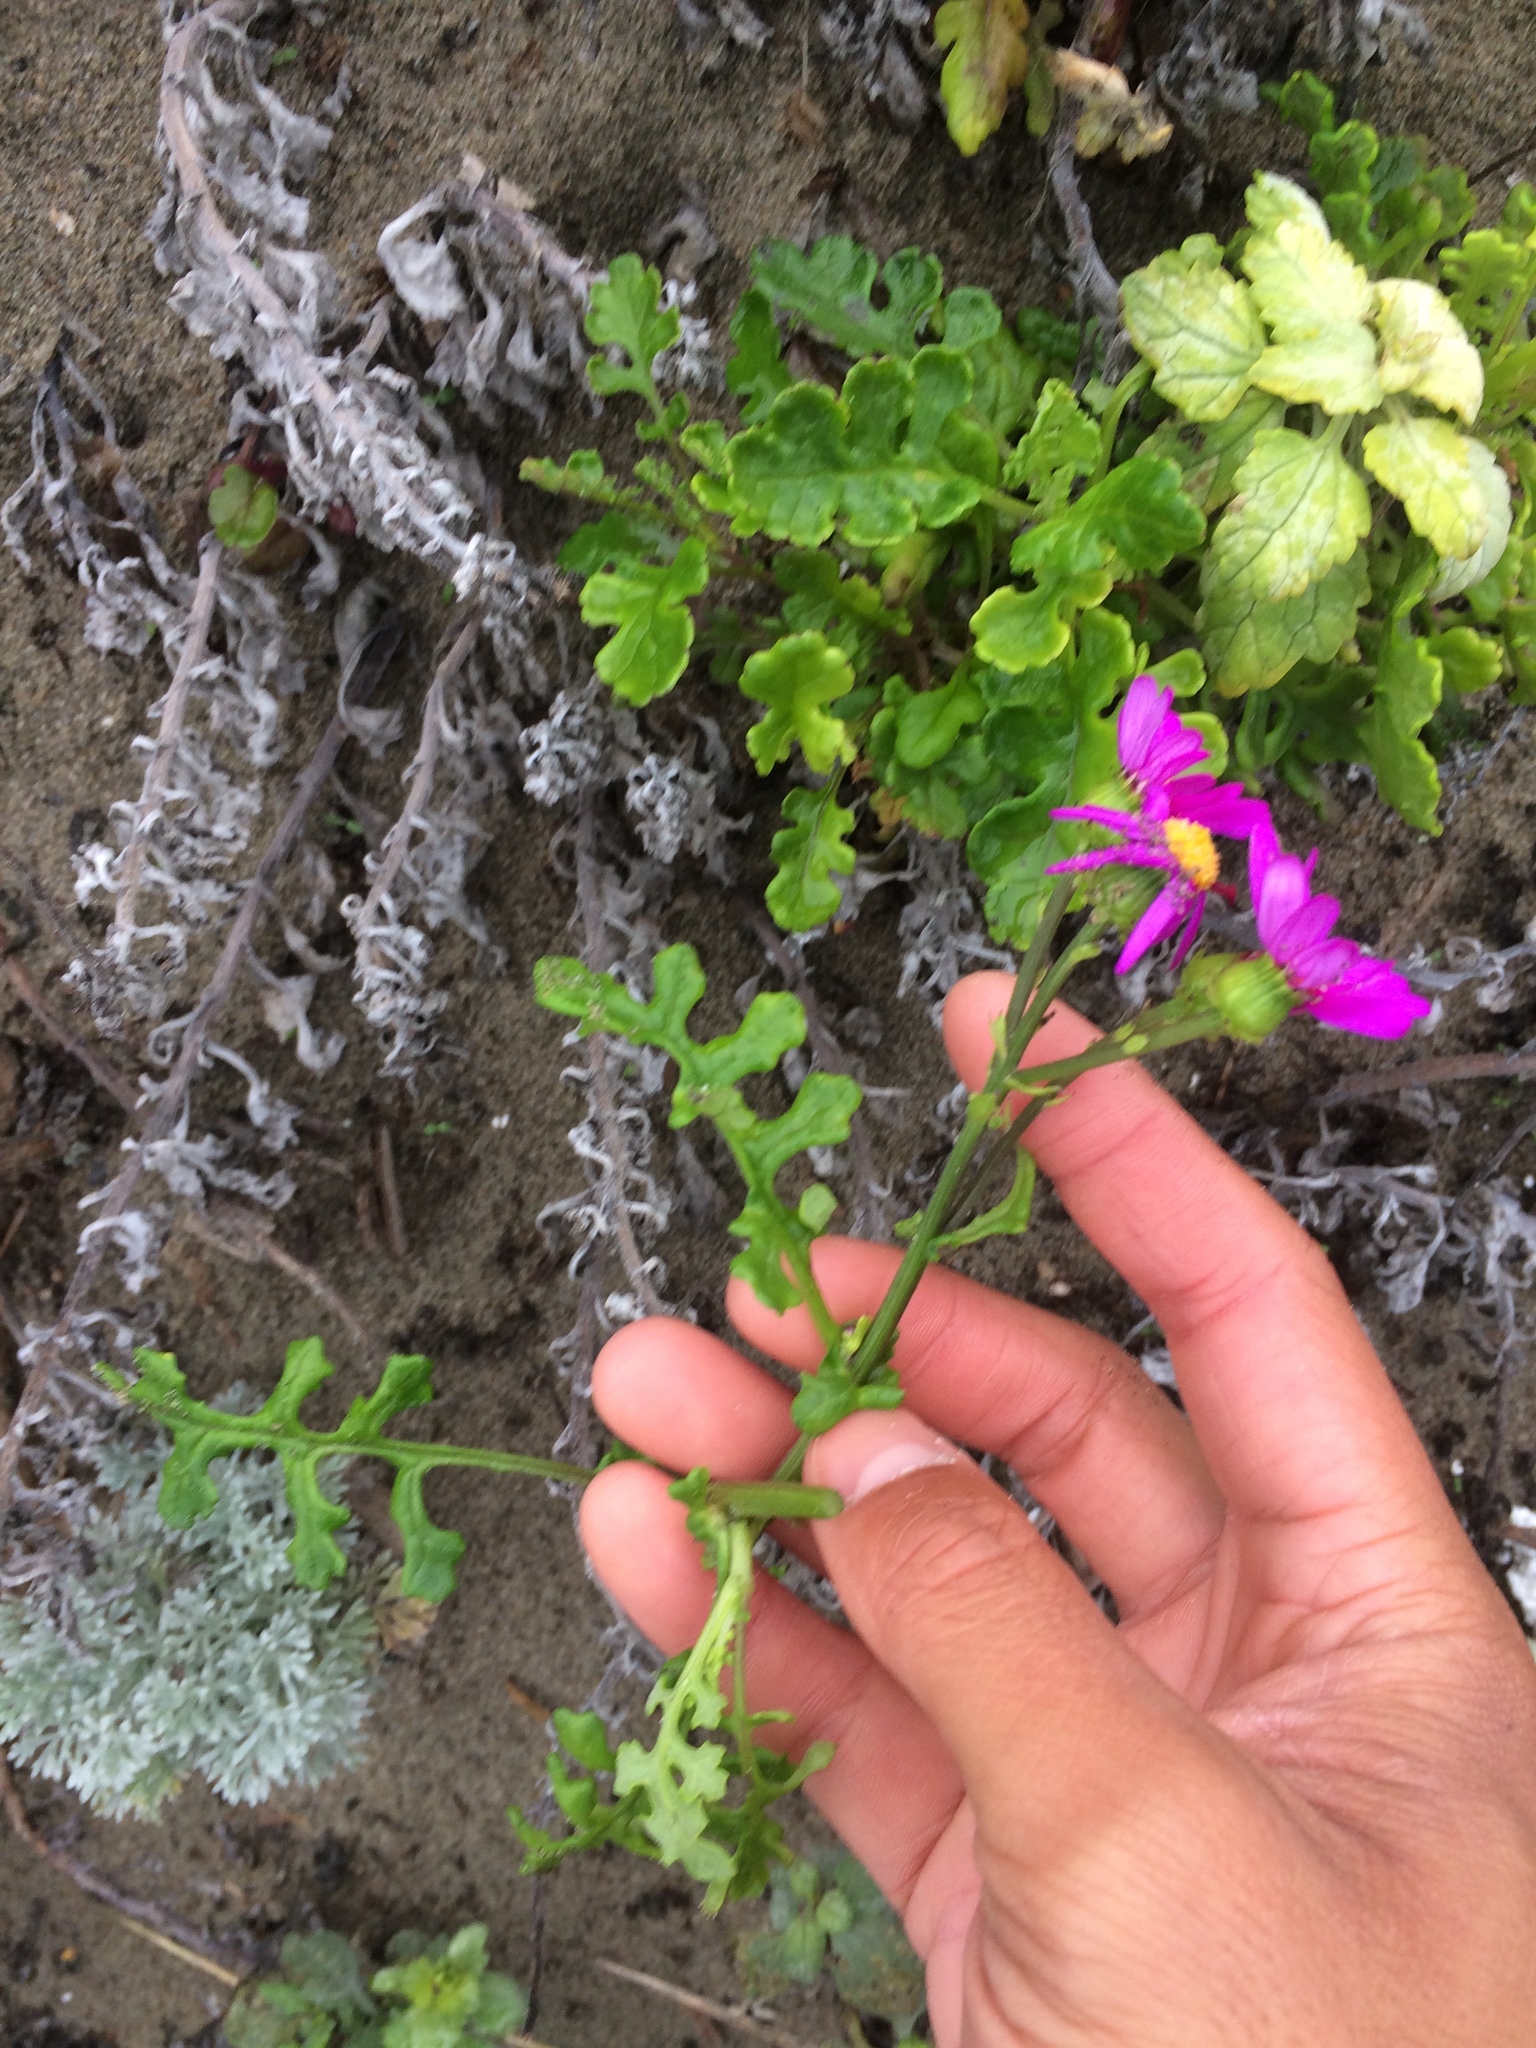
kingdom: Plantae
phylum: Tracheophyta
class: Magnoliopsida
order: Asterales
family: Asteraceae
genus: Senecio
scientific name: Senecio elegans
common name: Purple groundsel
